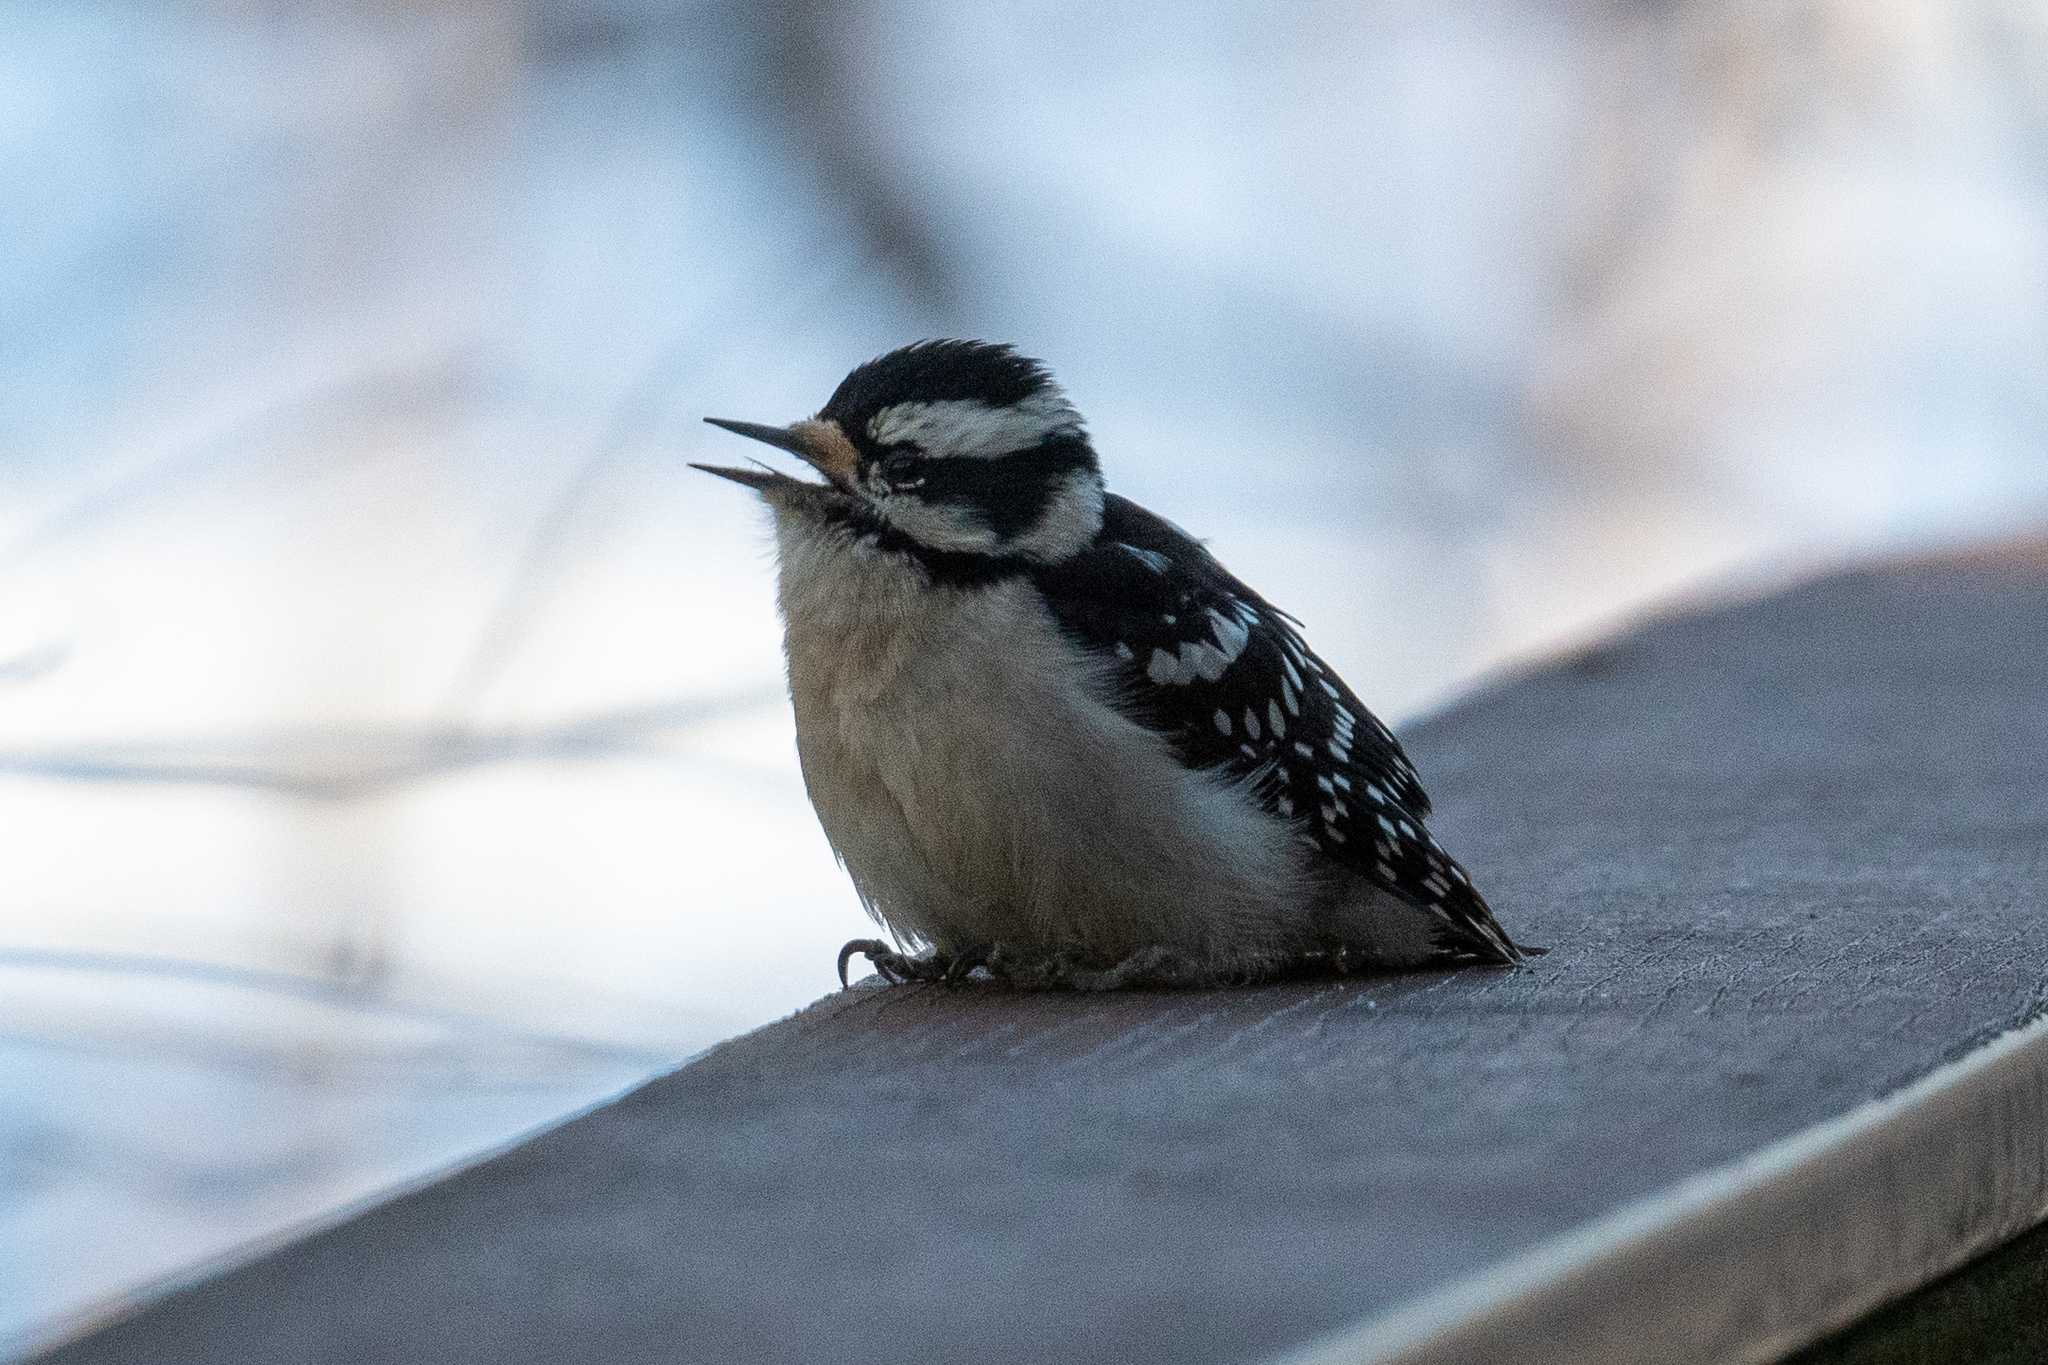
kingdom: Animalia
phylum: Chordata
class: Aves
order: Piciformes
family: Picidae
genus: Dryobates
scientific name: Dryobates pubescens
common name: Downy woodpecker
